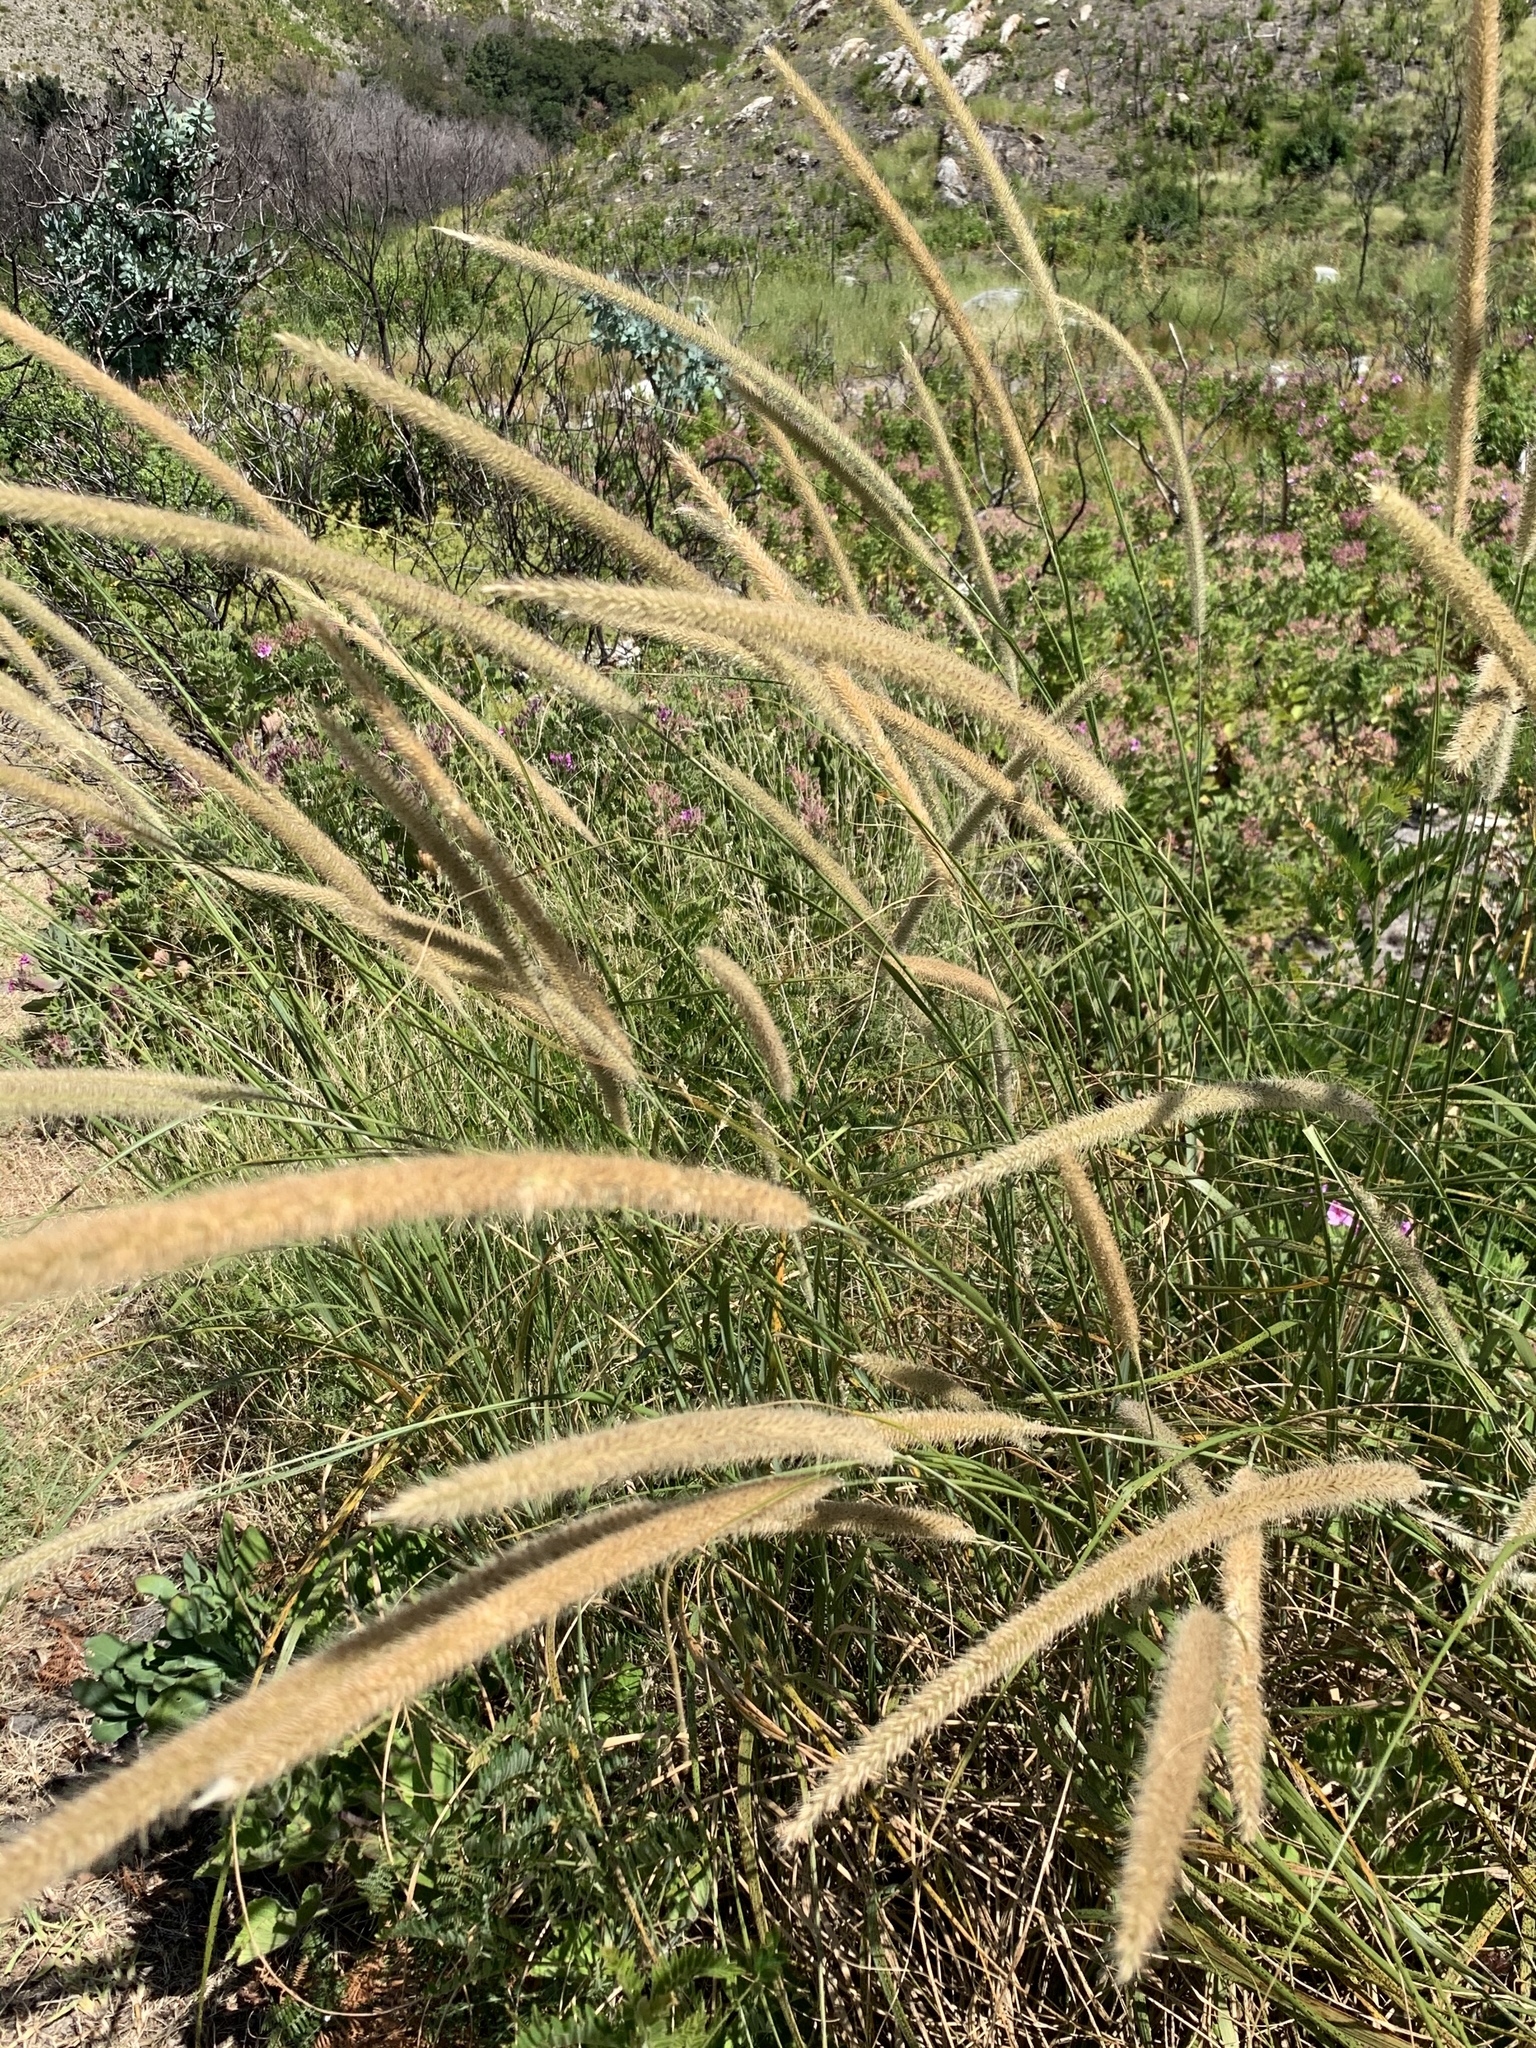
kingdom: Plantae
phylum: Tracheophyta
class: Liliopsida
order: Poales
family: Poaceae
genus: Cenchrus
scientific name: Cenchrus caudatus
